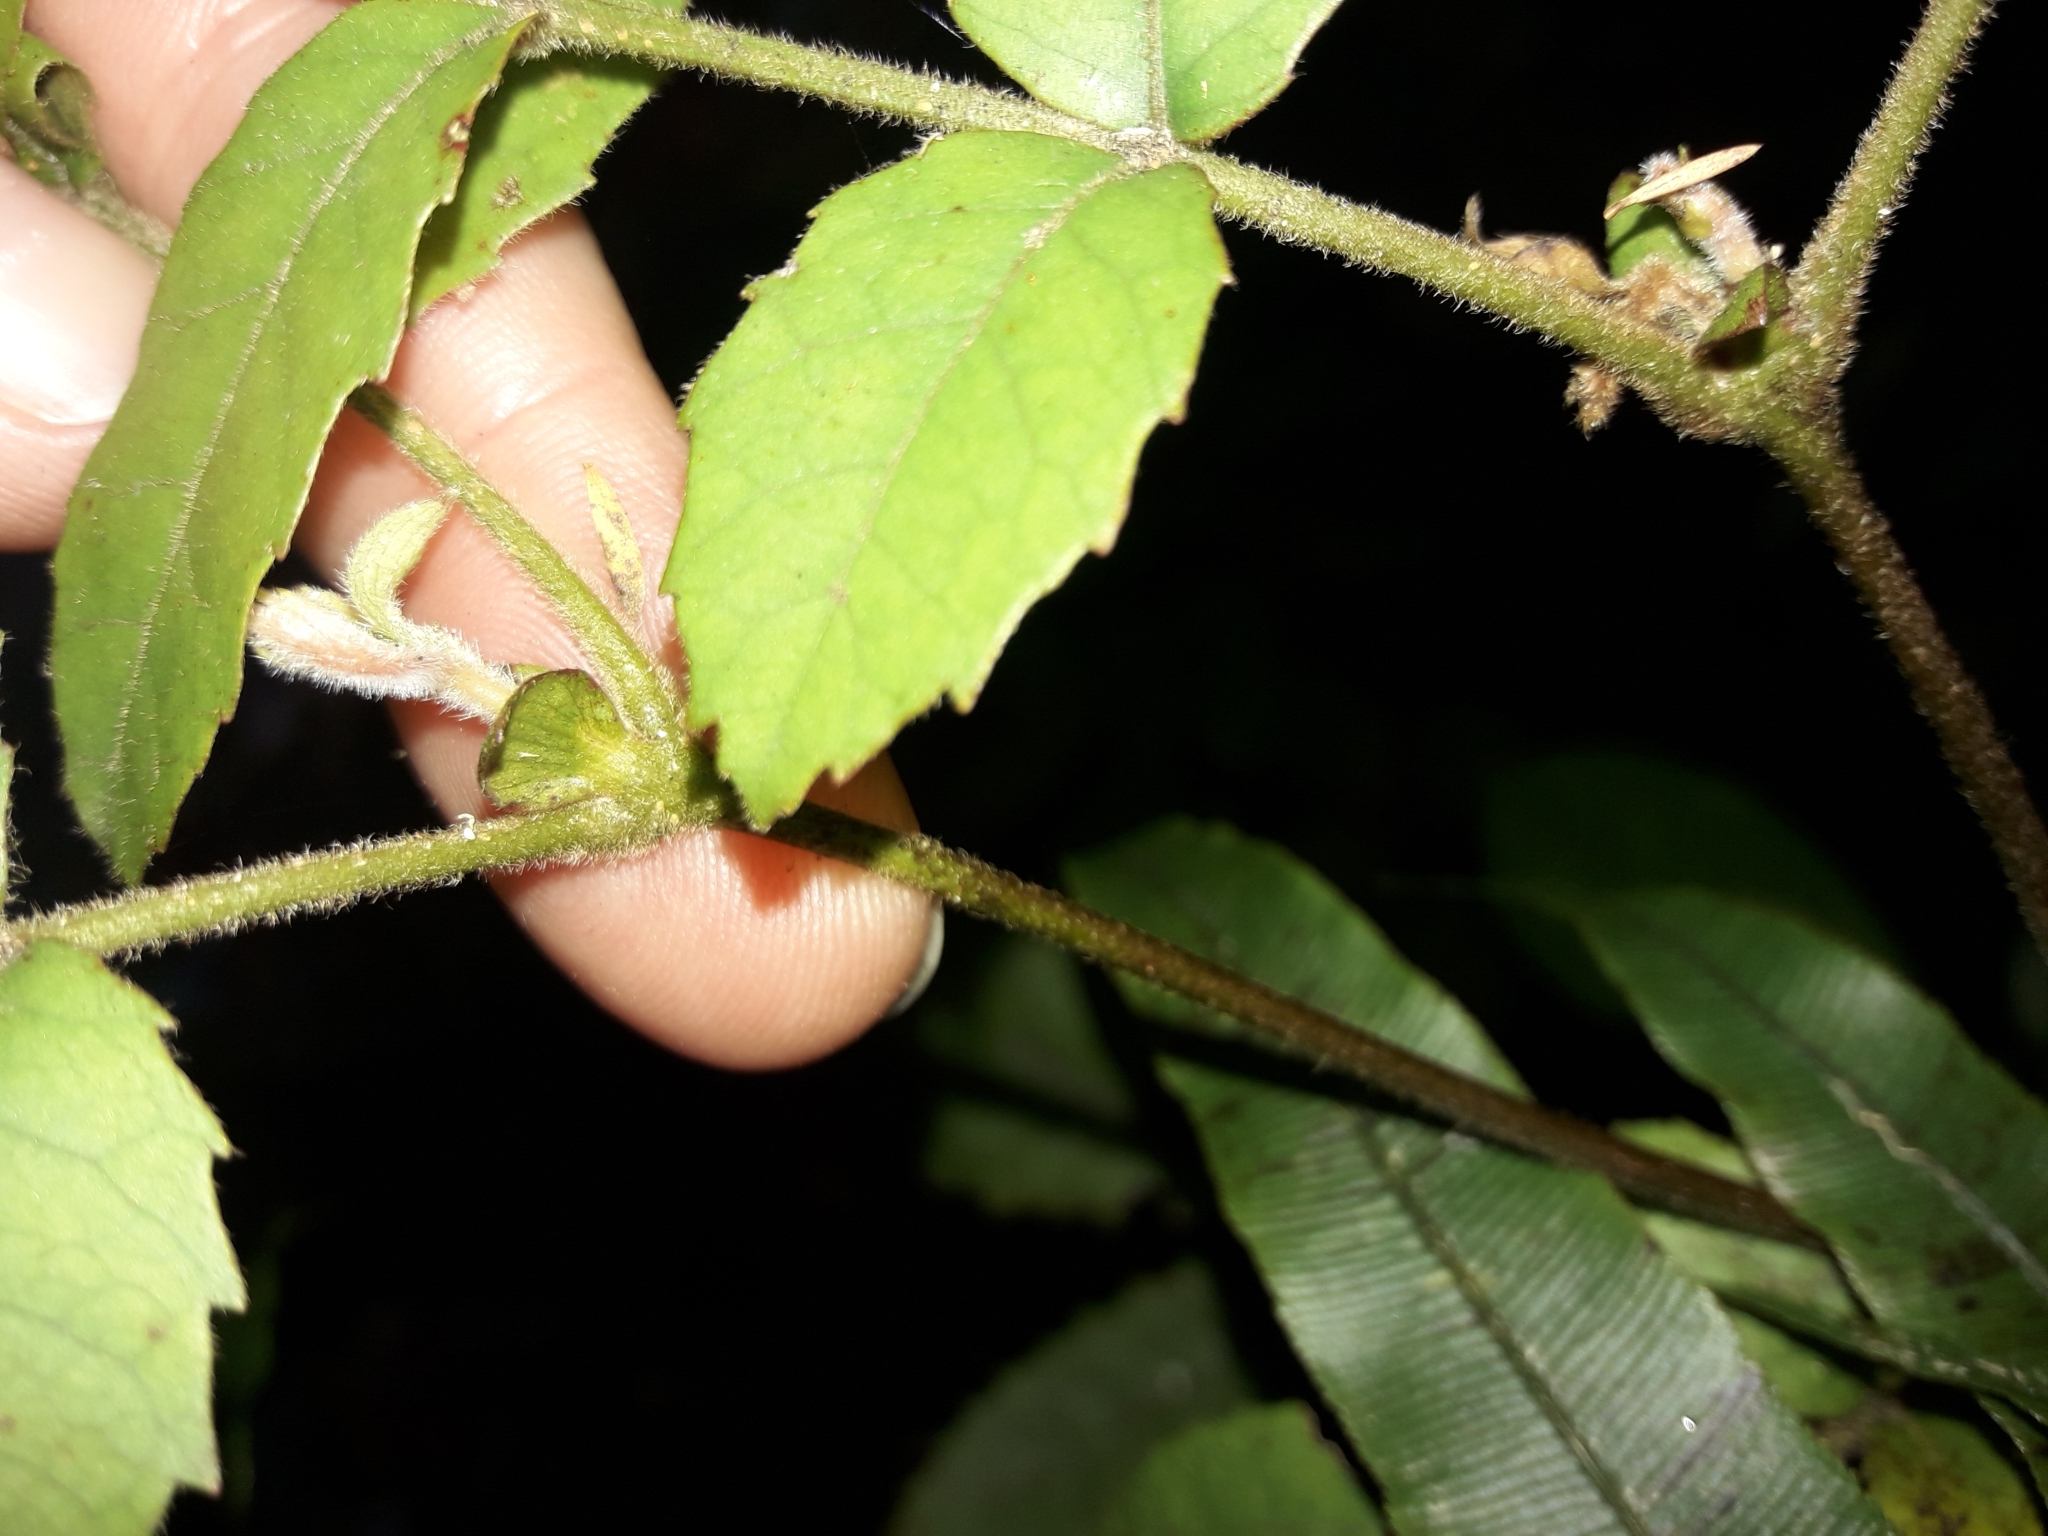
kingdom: Plantae
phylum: Tracheophyta
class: Magnoliopsida
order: Oxalidales
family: Cunoniaceae
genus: Pterophylla
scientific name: Pterophylla sylvicola
